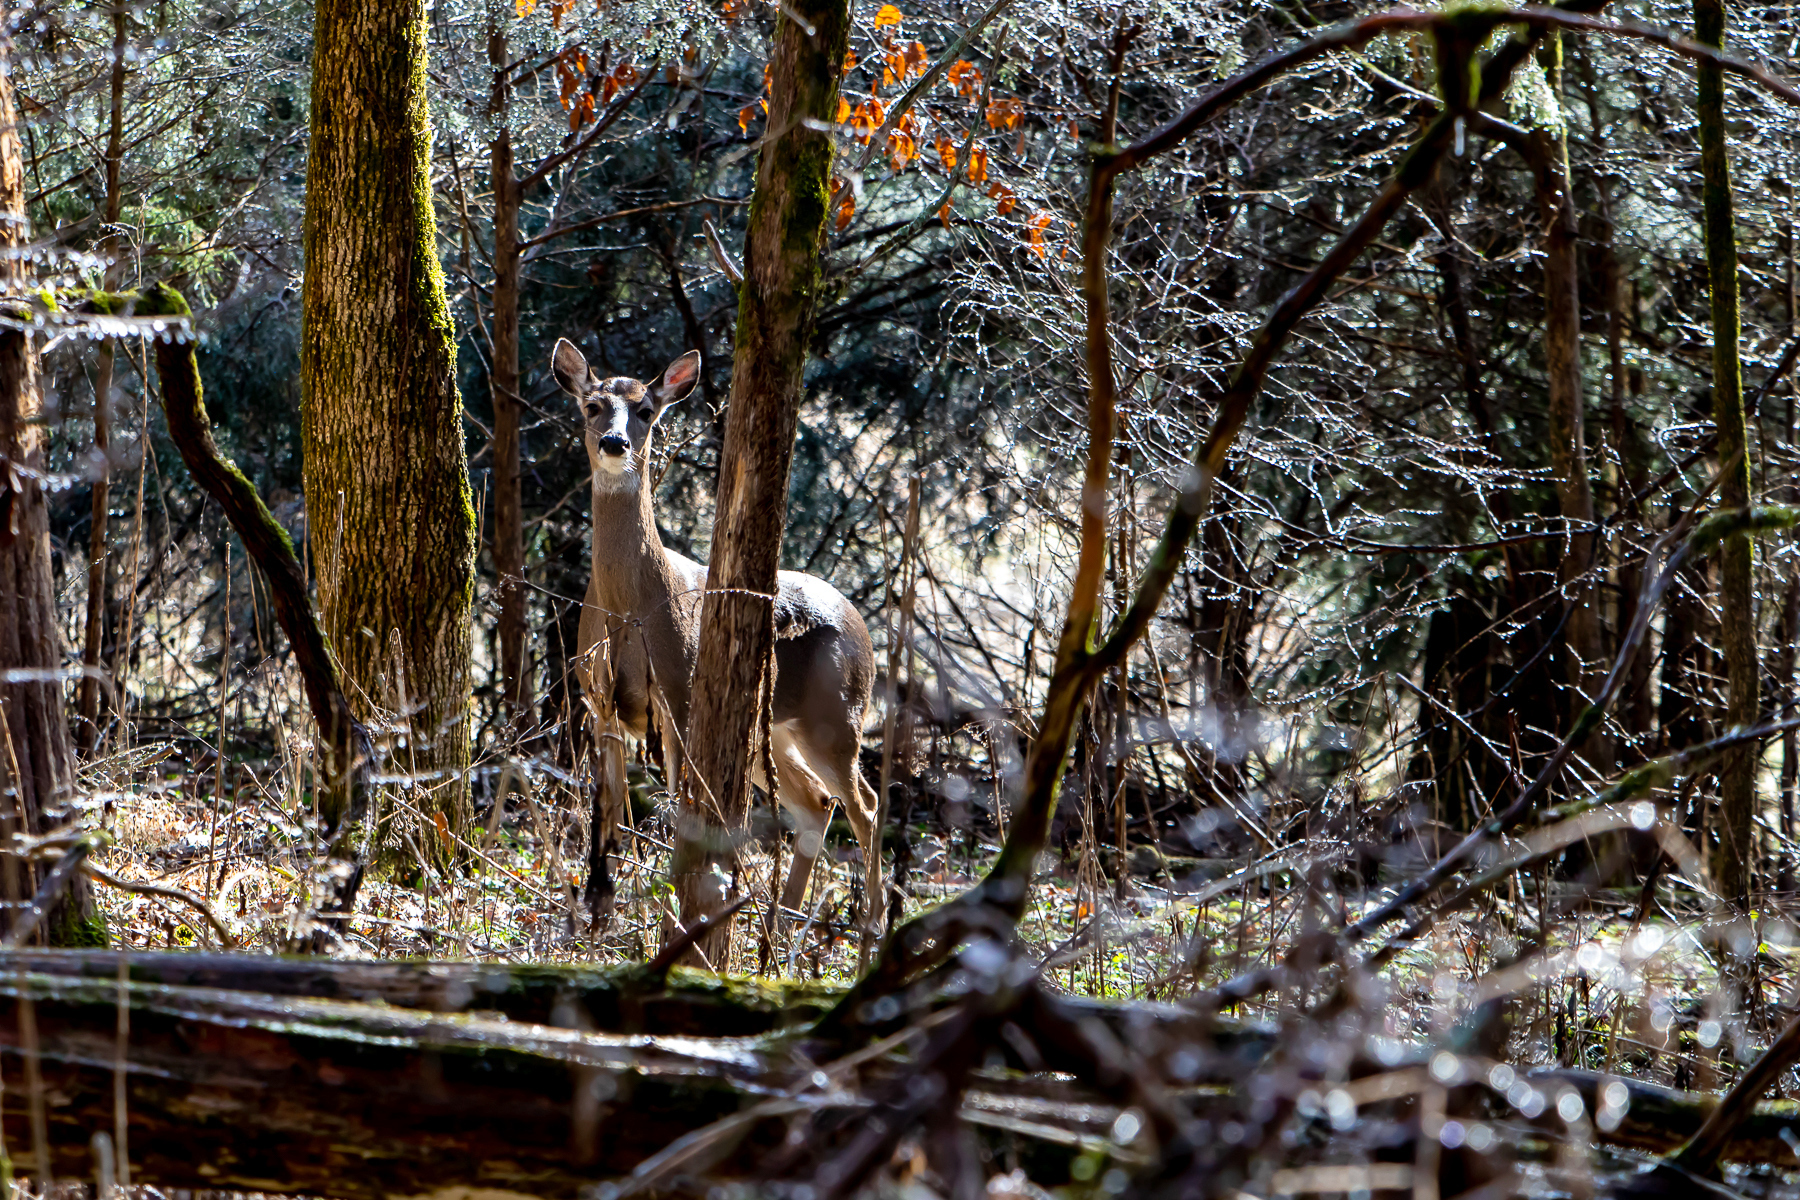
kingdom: Animalia
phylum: Chordata
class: Mammalia
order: Artiodactyla
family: Cervidae
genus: Odocoileus
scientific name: Odocoileus virginianus
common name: White-tailed deer
